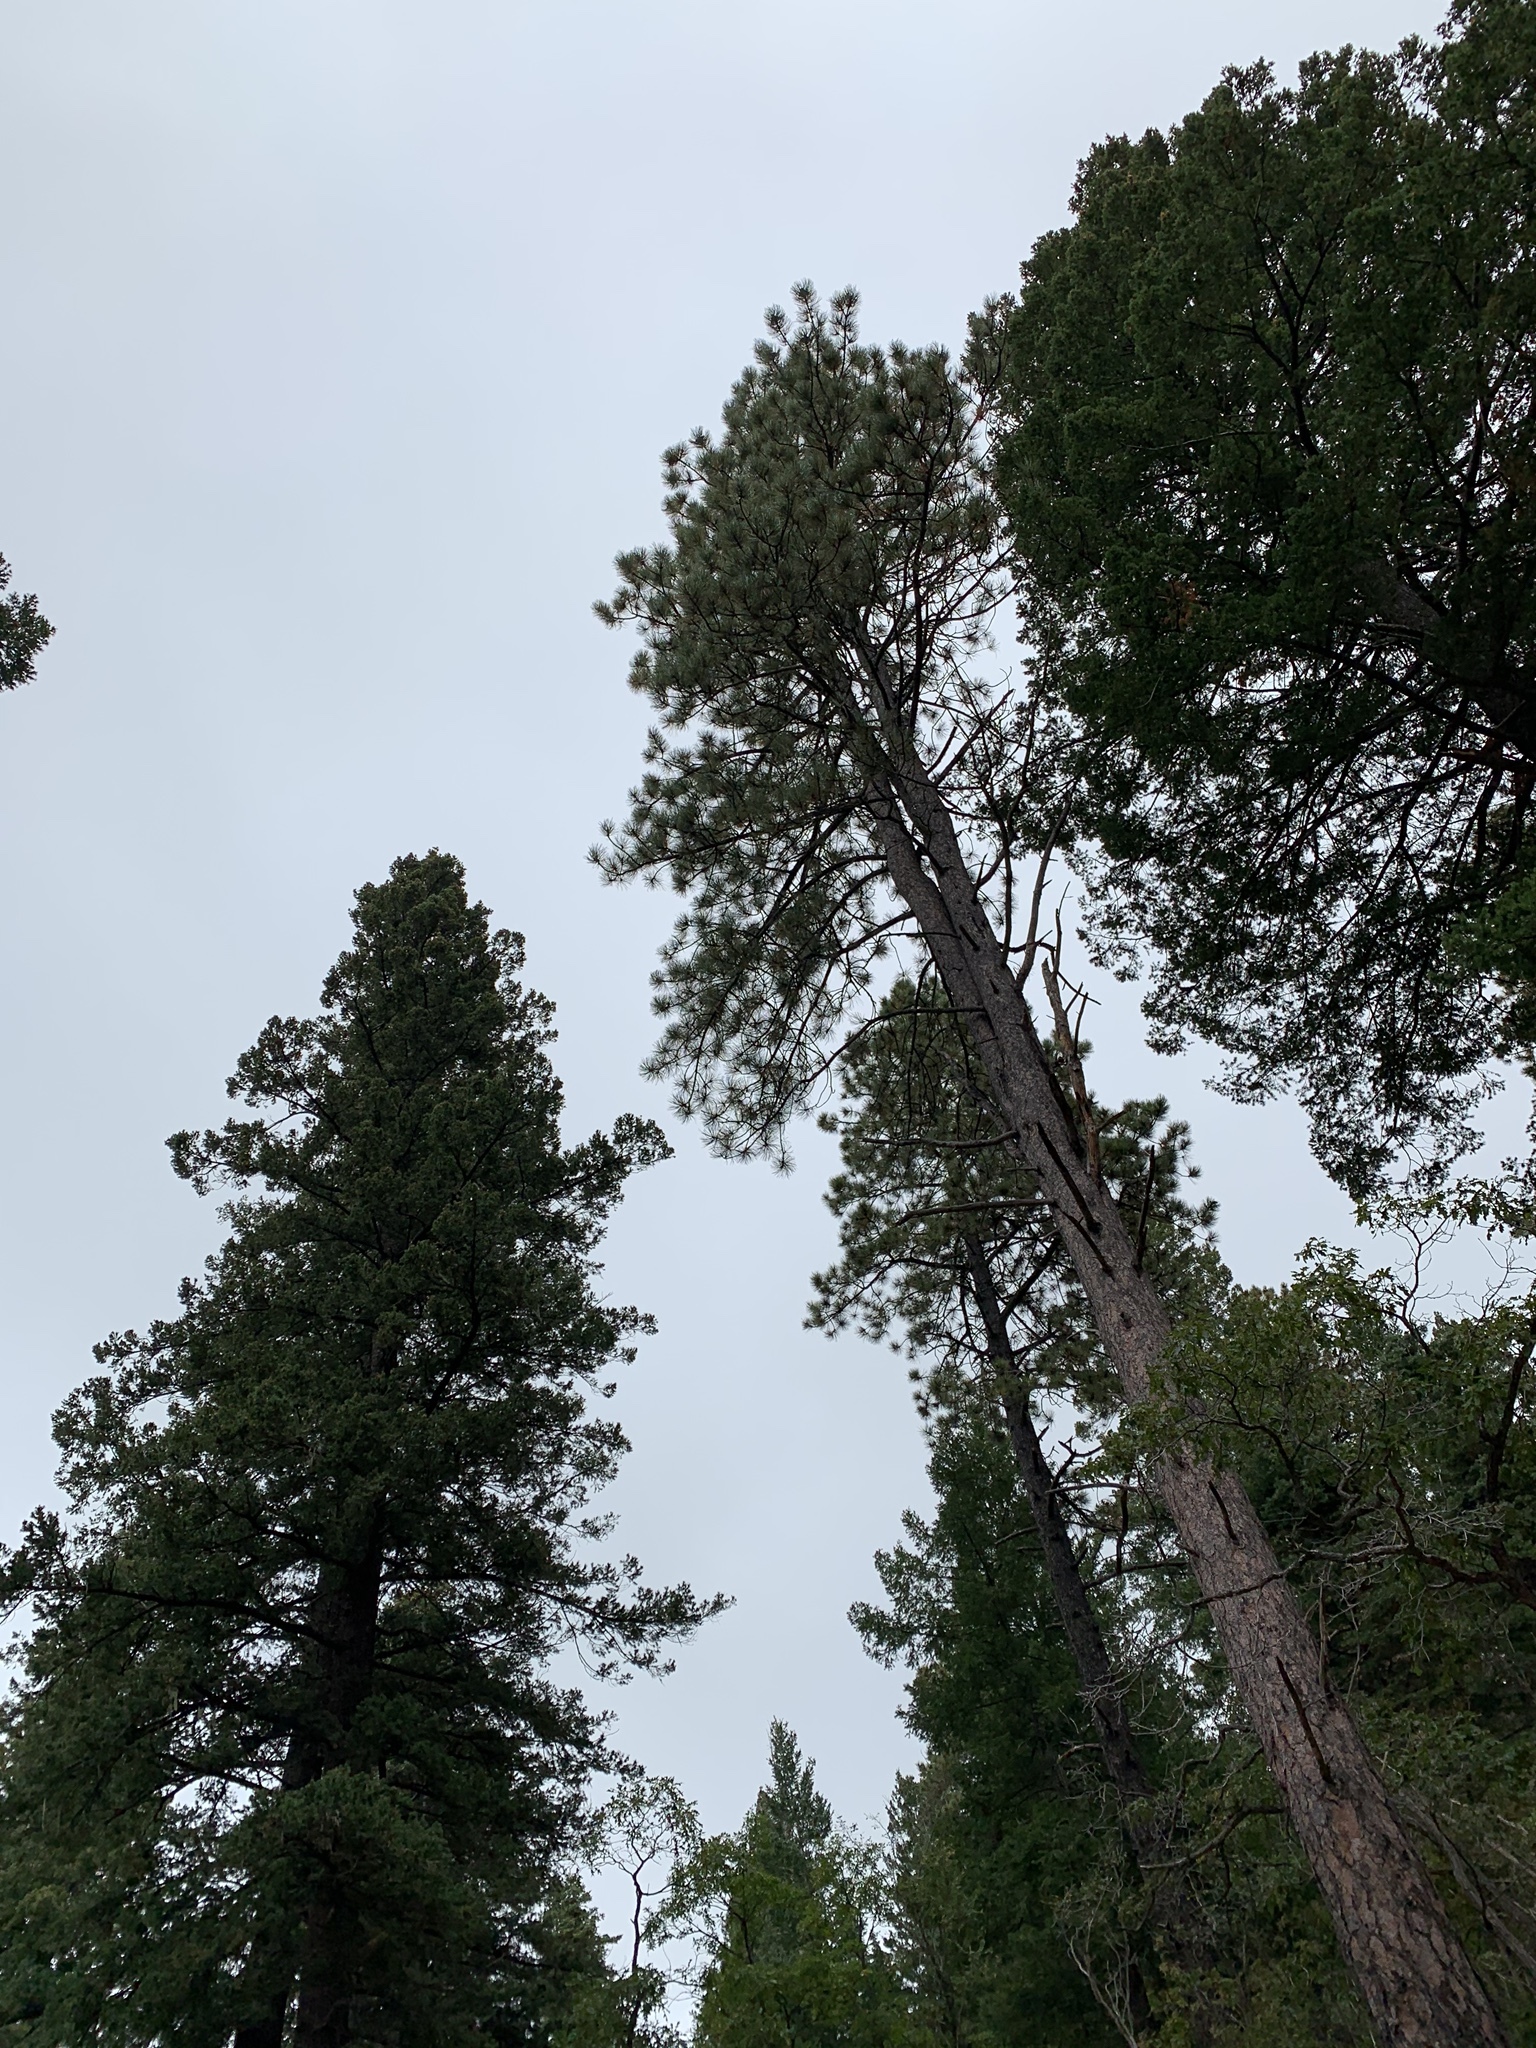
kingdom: Plantae
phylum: Tracheophyta
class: Pinopsida
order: Pinales
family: Pinaceae
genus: Pinus
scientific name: Pinus ponderosa
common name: Western yellow-pine
